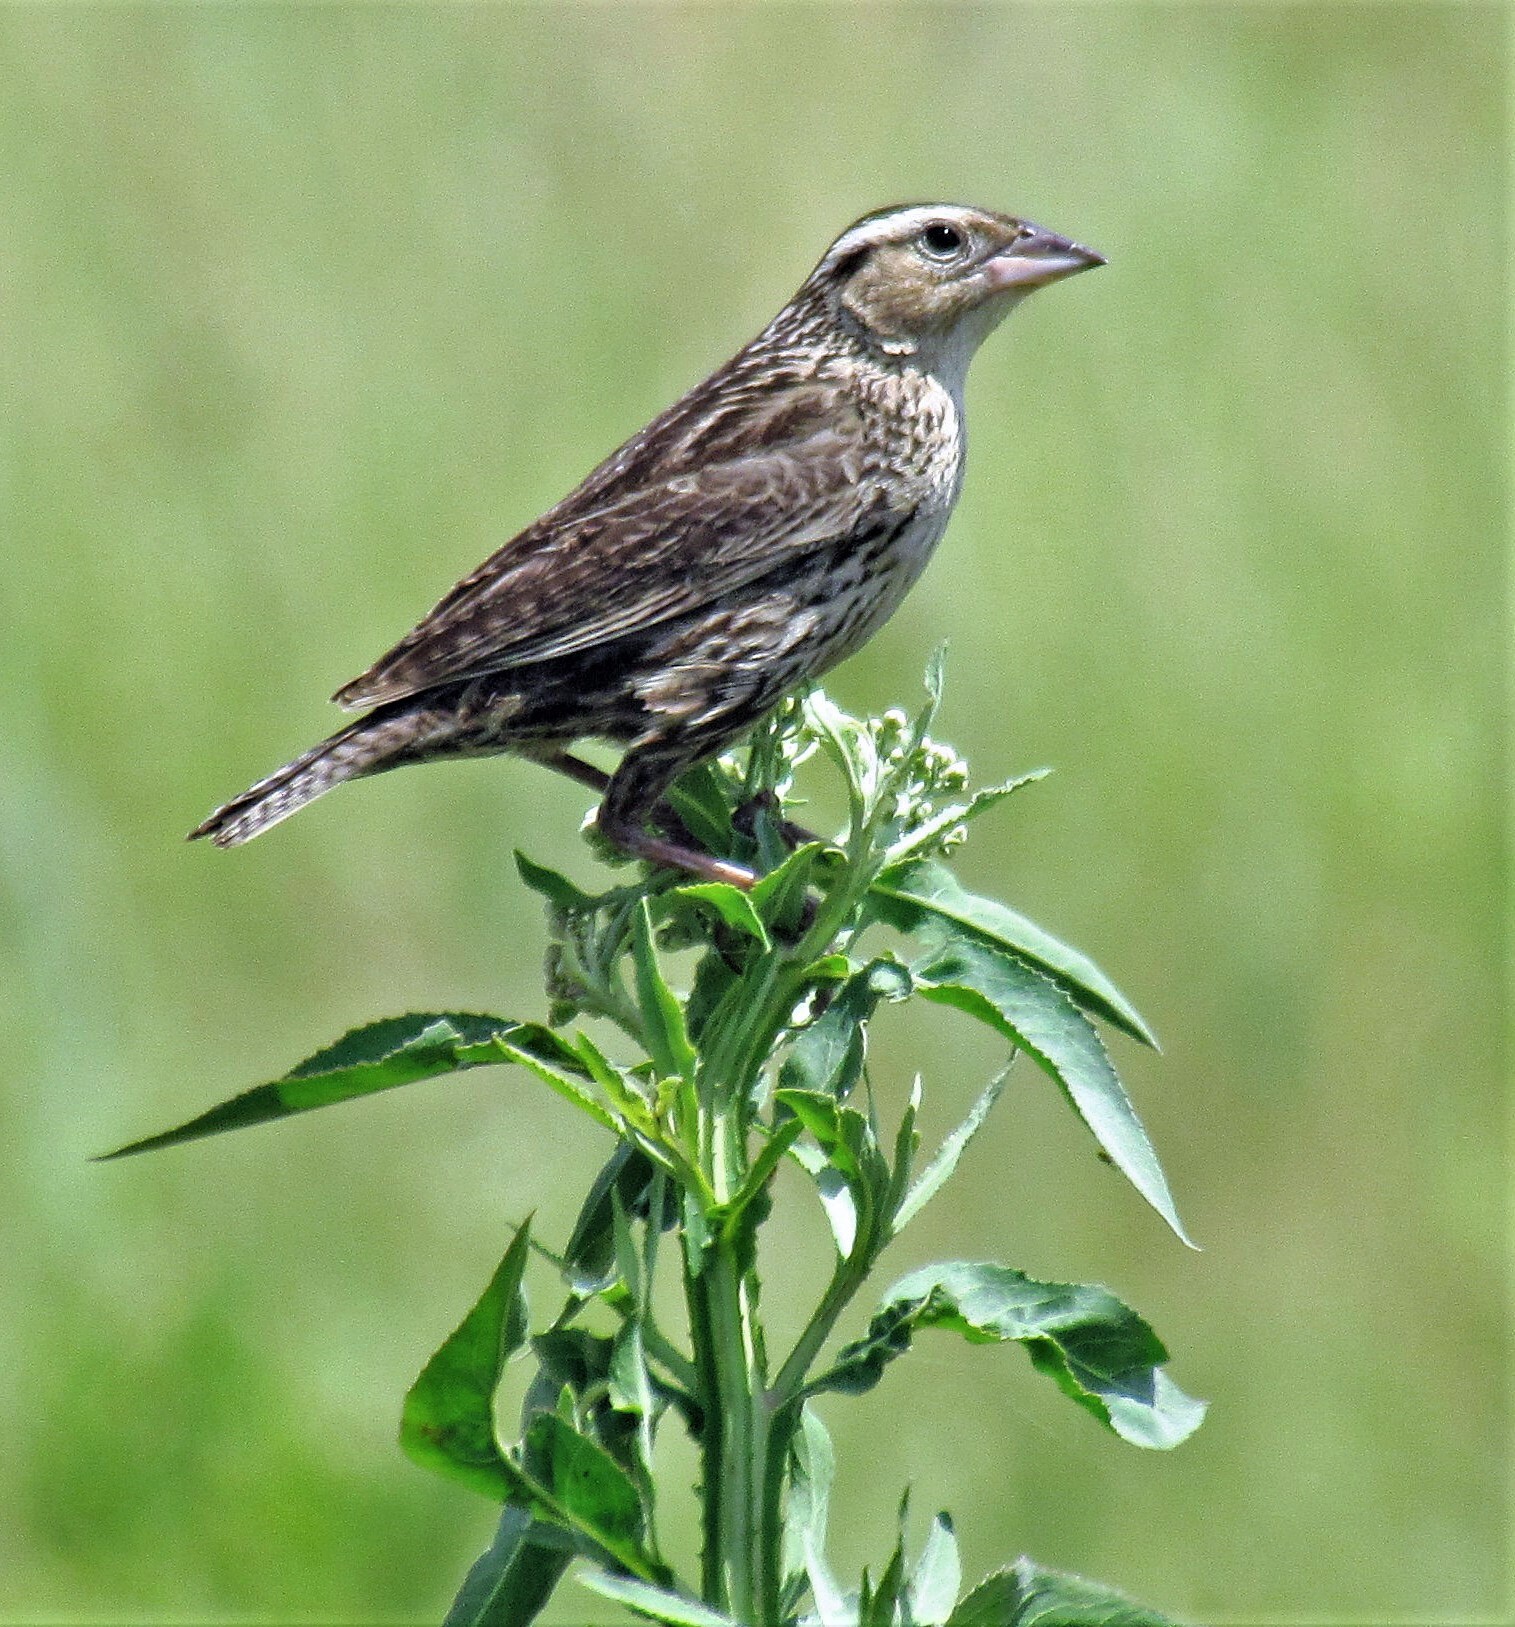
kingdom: Animalia
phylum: Chordata
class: Aves
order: Passeriformes
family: Icteridae
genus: Sturnella
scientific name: Sturnella superciliaris
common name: White-browed blackbird
